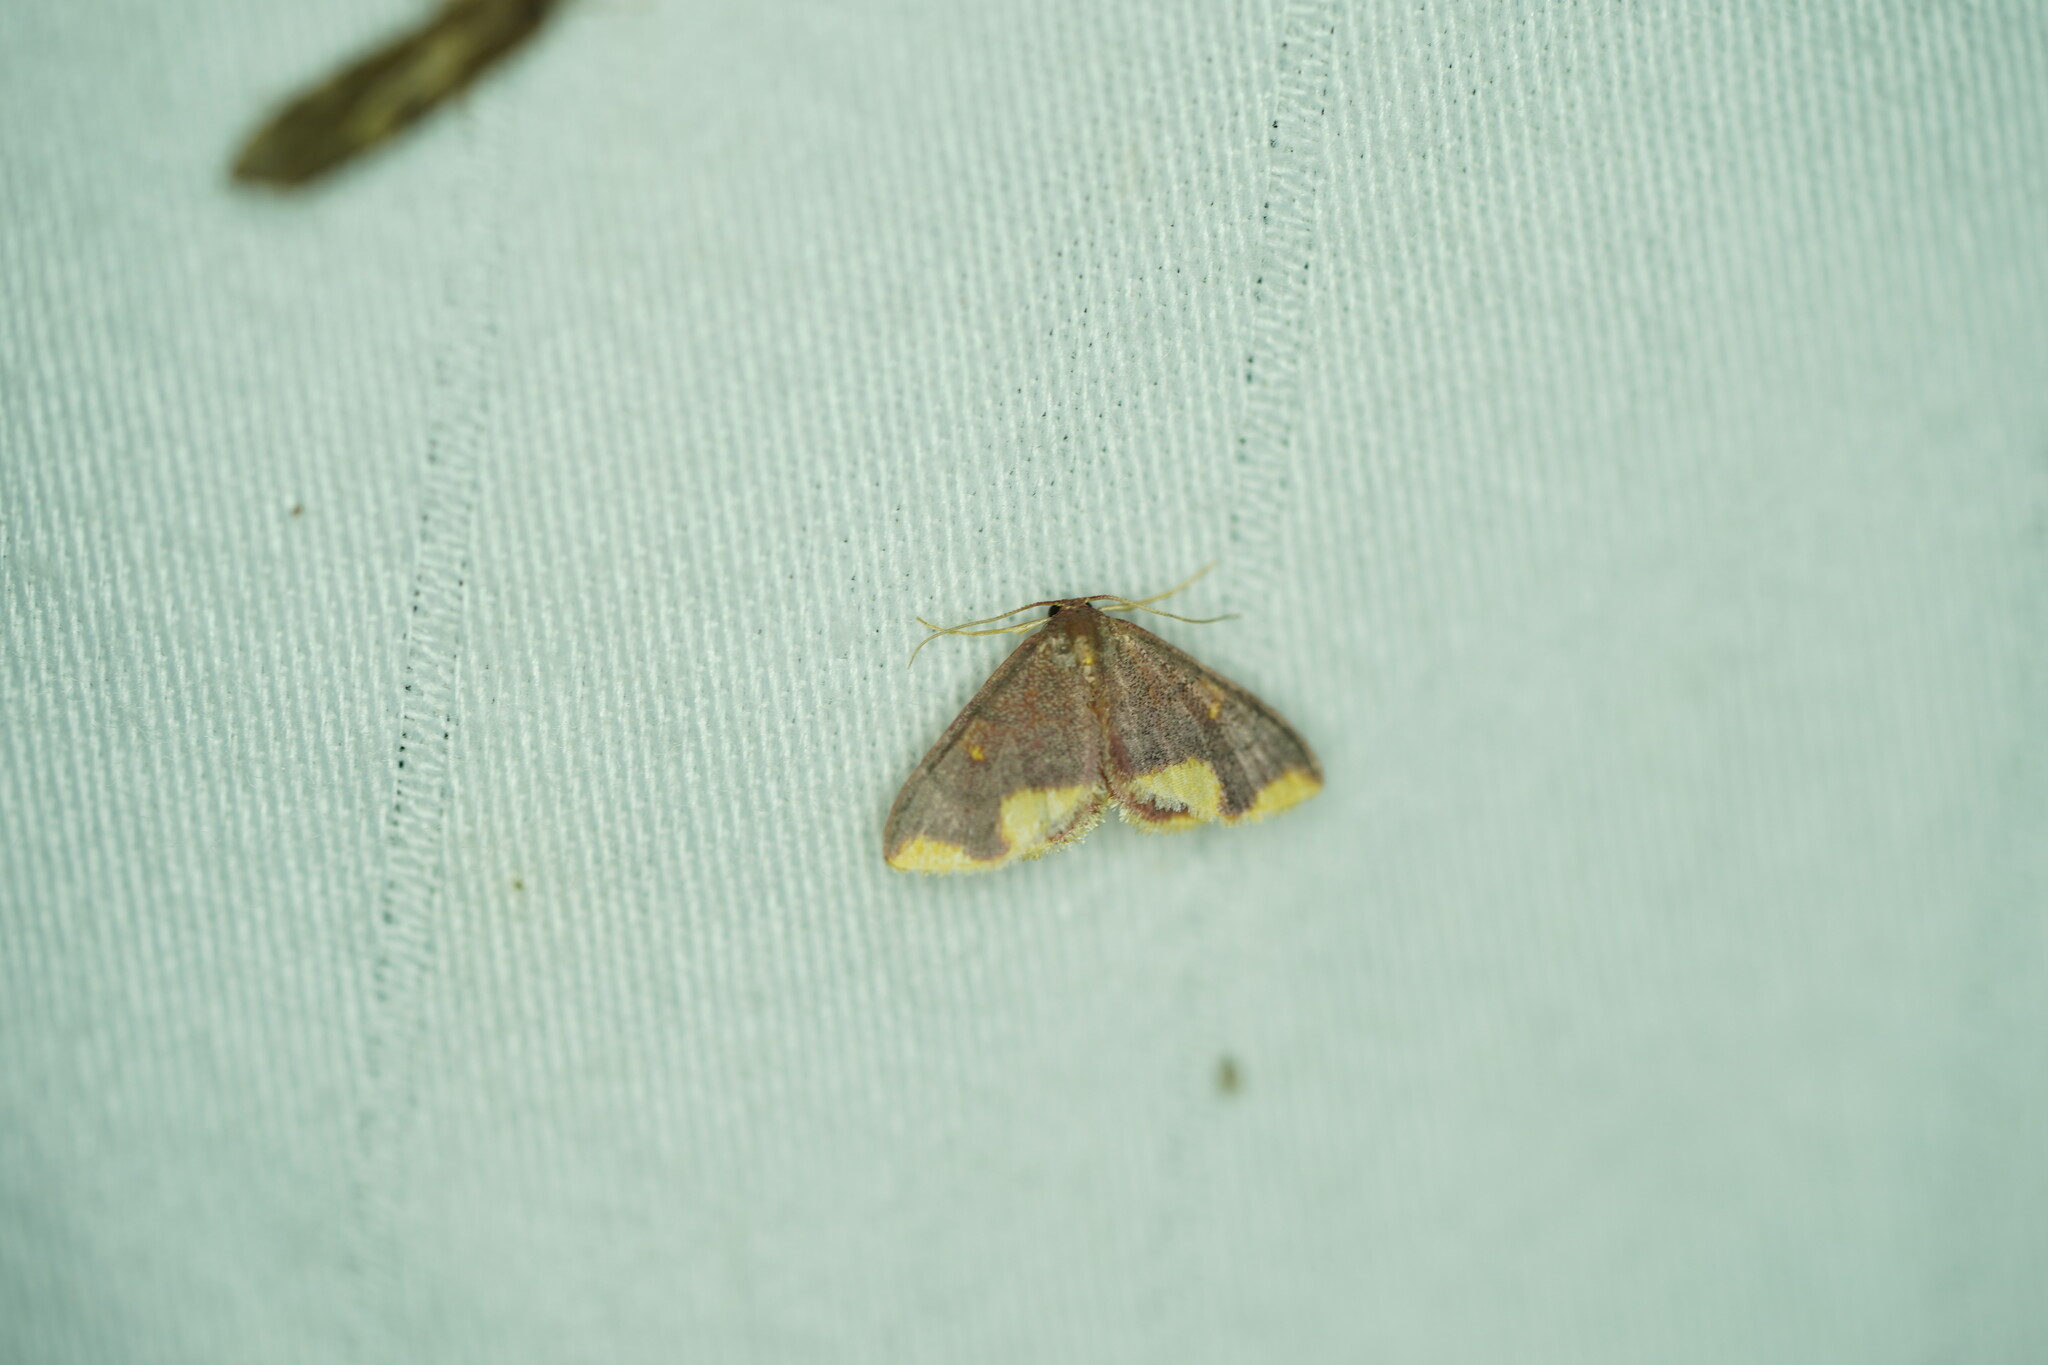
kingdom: Animalia
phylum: Arthropoda
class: Insecta
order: Lepidoptera
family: Geometridae
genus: Lophosis
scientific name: Lophosis labeculata
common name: Stained lophosis moth
